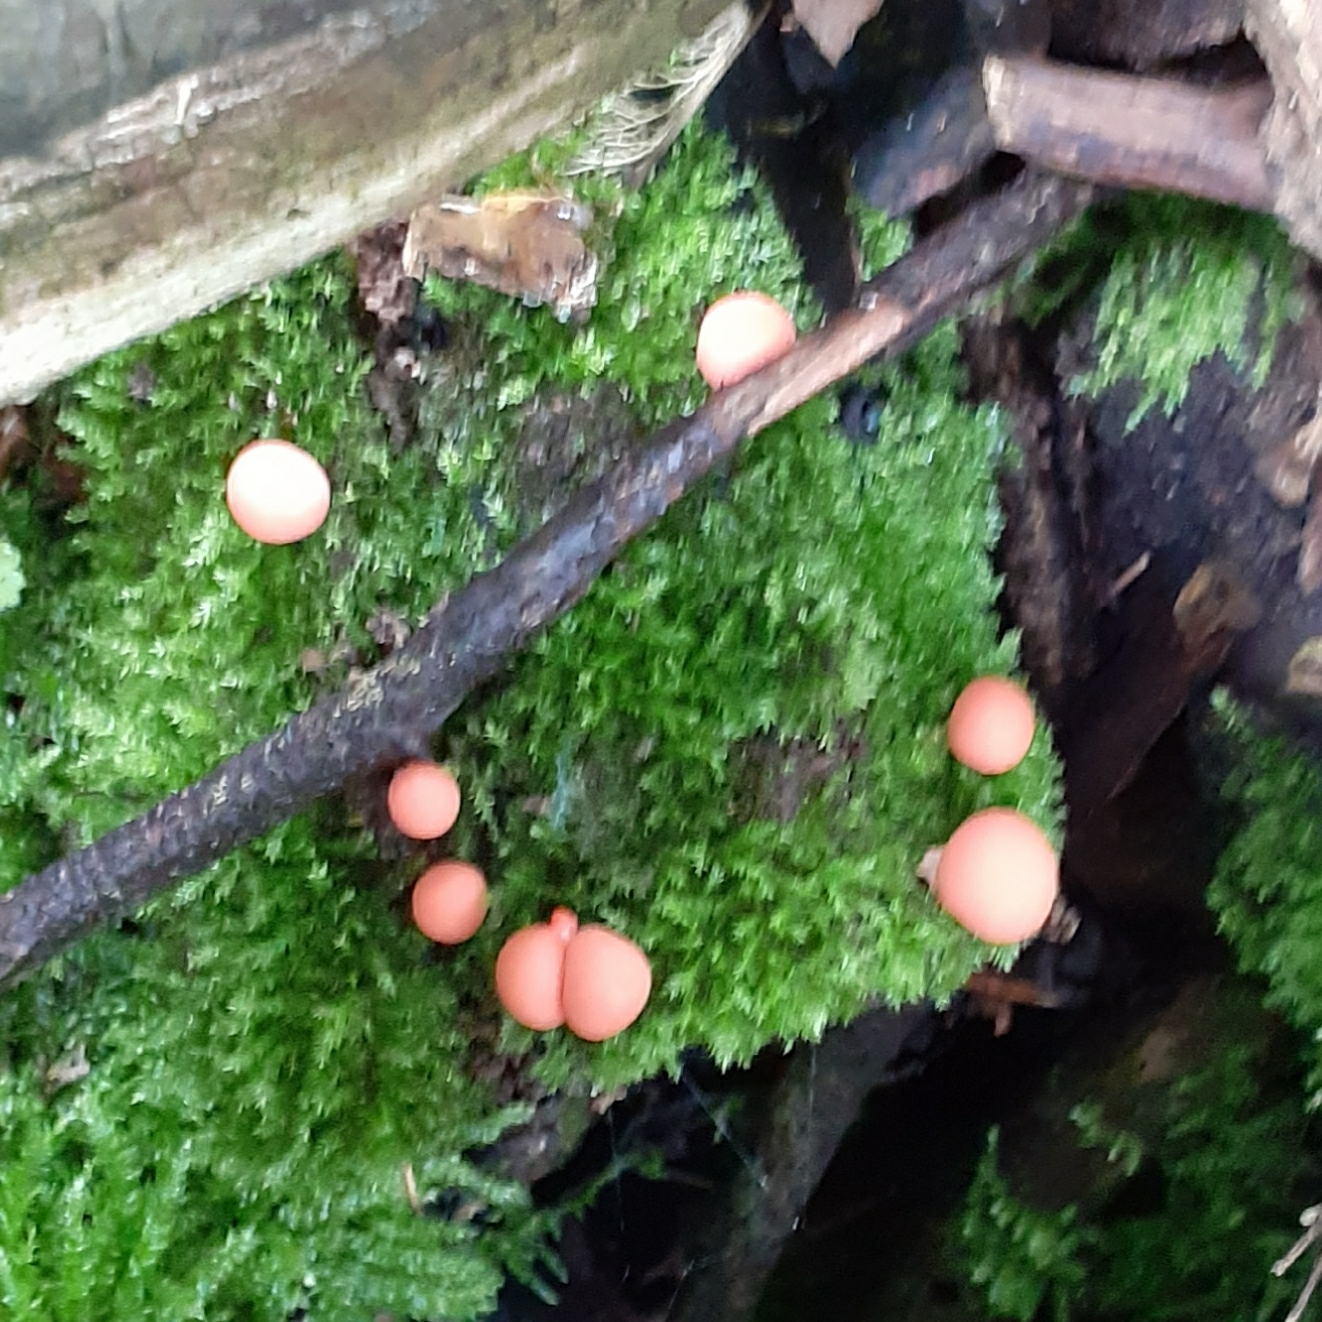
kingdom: Protozoa
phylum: Mycetozoa
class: Myxomycetes
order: Cribrariales
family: Tubiferaceae
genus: Lycogala
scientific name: Lycogala epidendrum
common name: Wolf's milk
